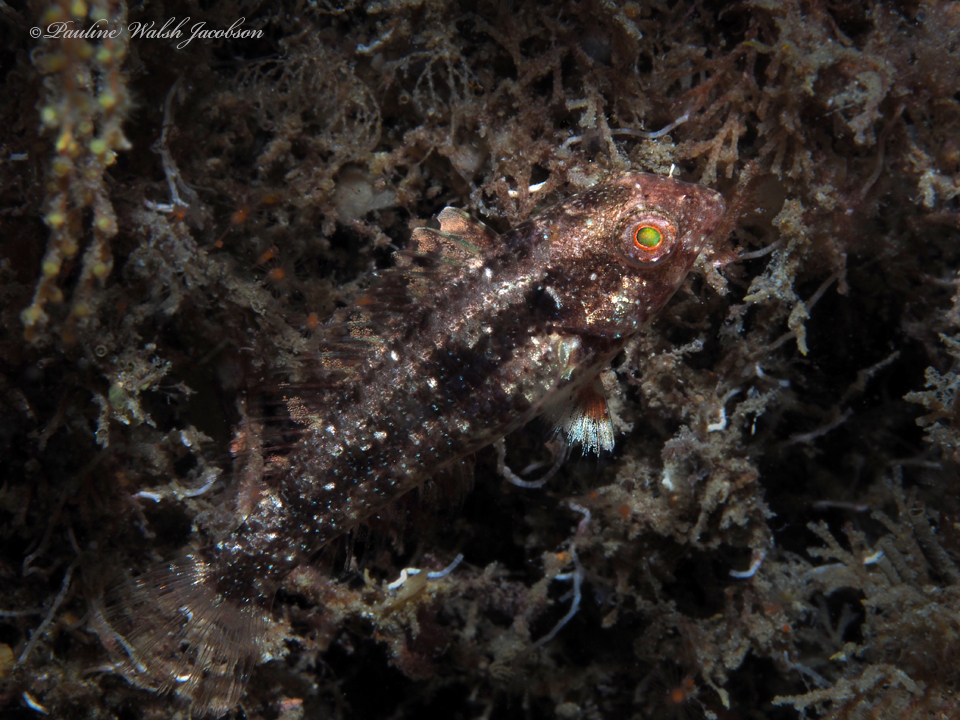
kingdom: Animalia
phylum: Chordata
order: Perciformes
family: Scaridae
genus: Sparisoma
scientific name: Sparisoma aurofrenatum
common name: Redband parrotfish
